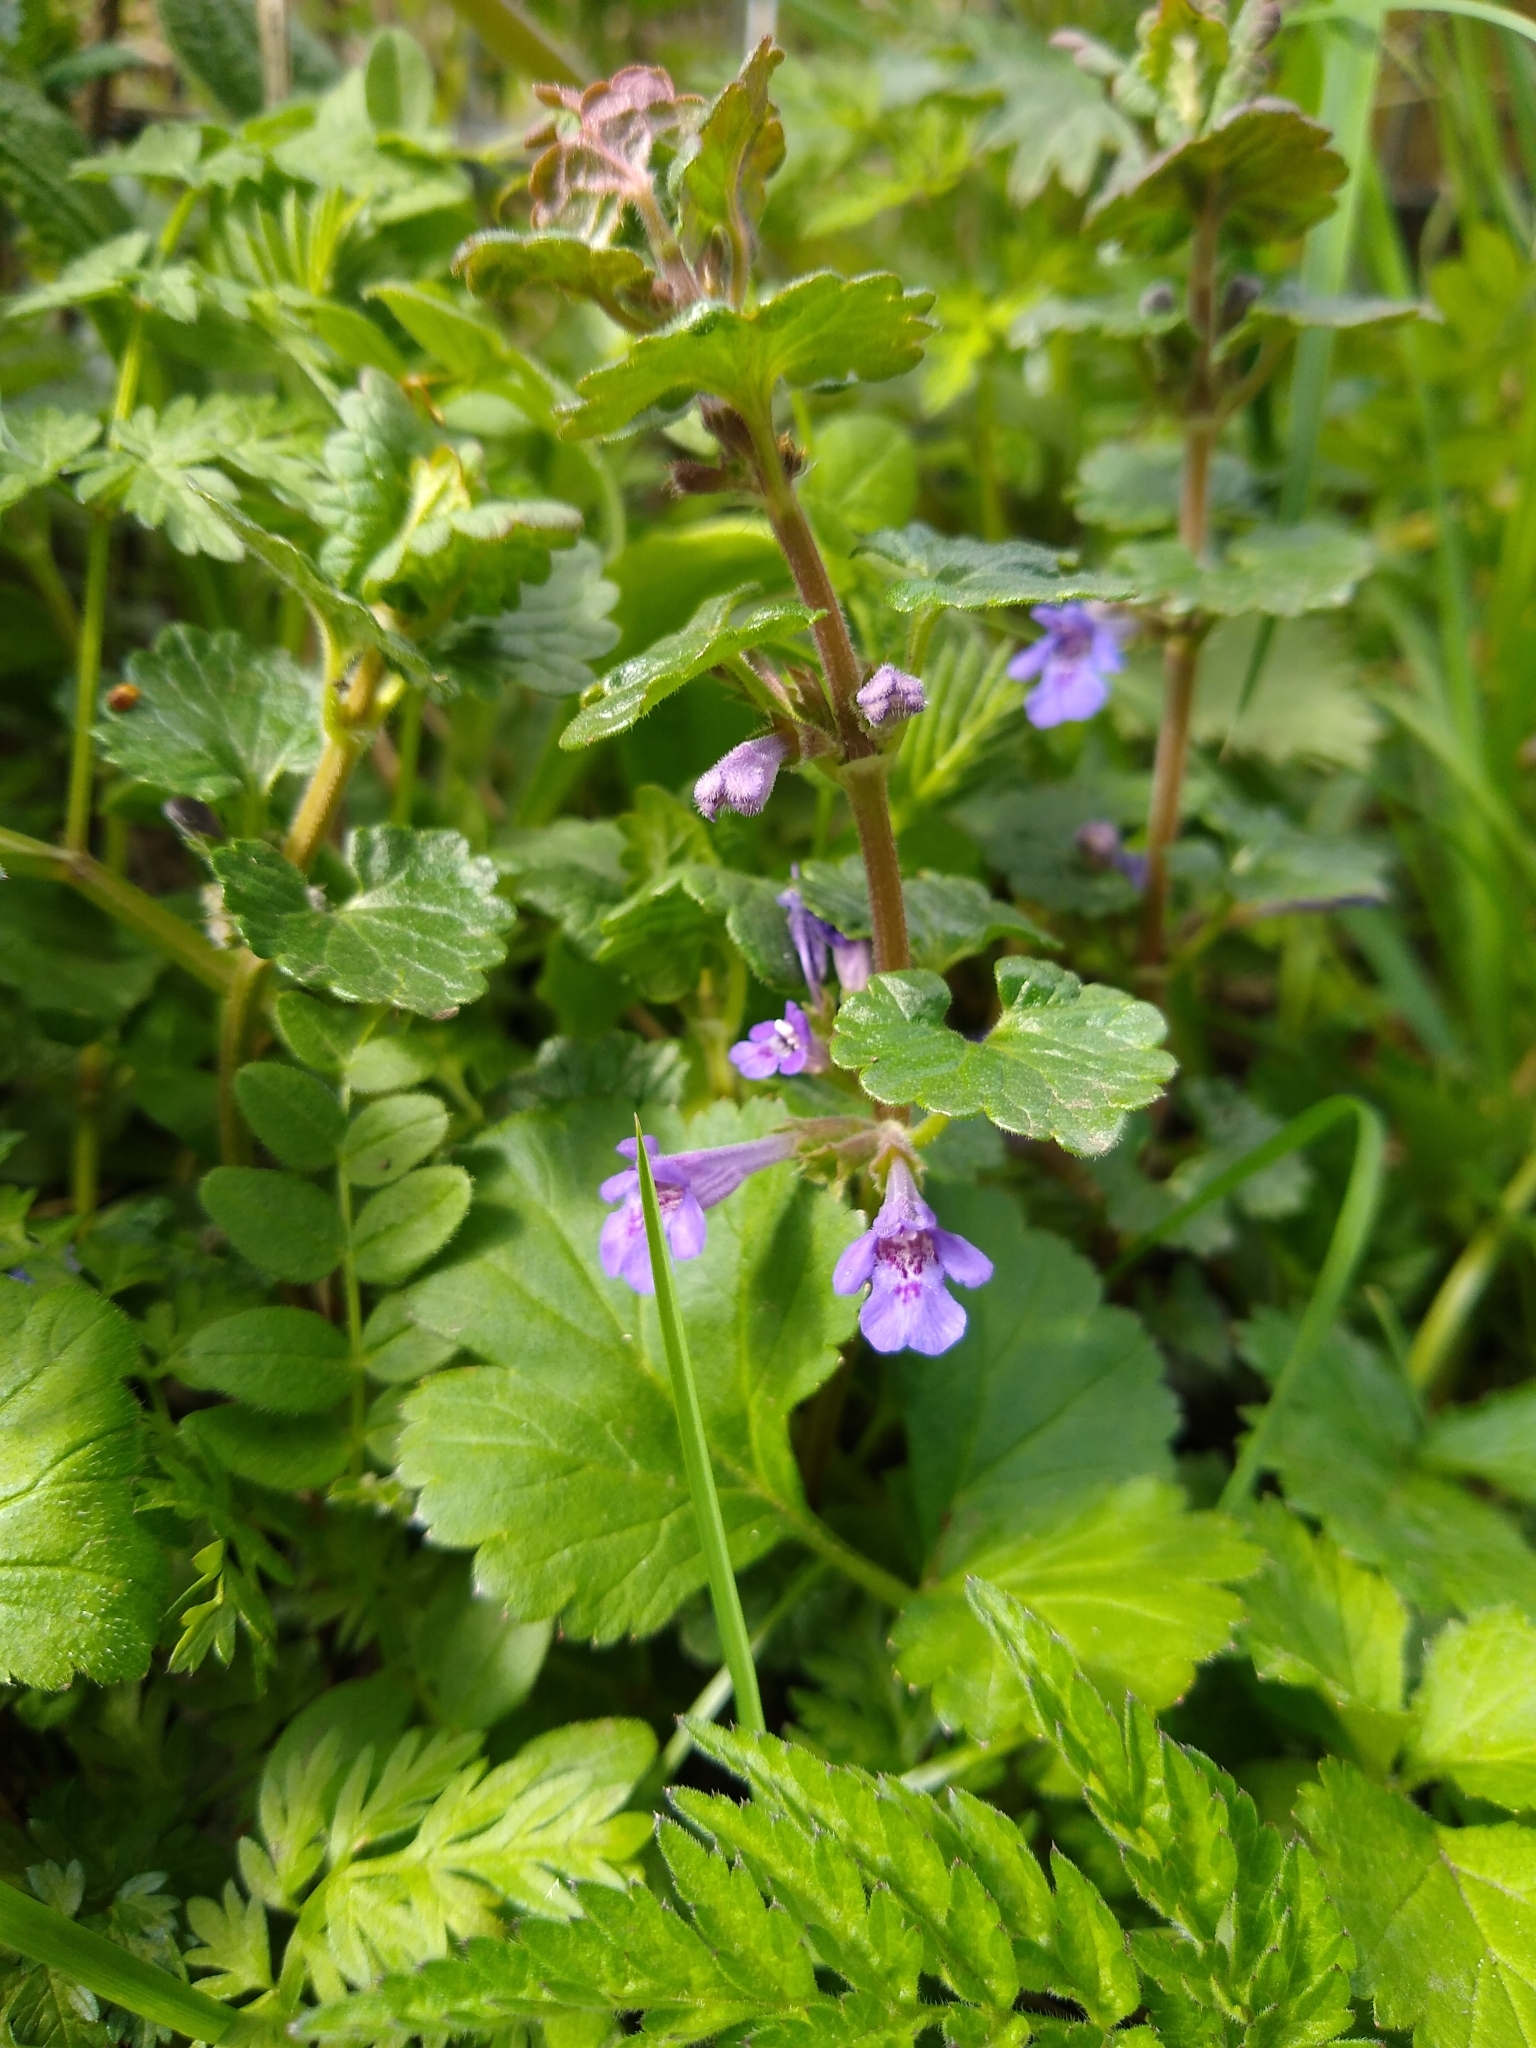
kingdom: Plantae
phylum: Tracheophyta
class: Magnoliopsida
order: Lamiales
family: Lamiaceae
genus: Glechoma
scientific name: Glechoma hederacea
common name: Ground ivy
